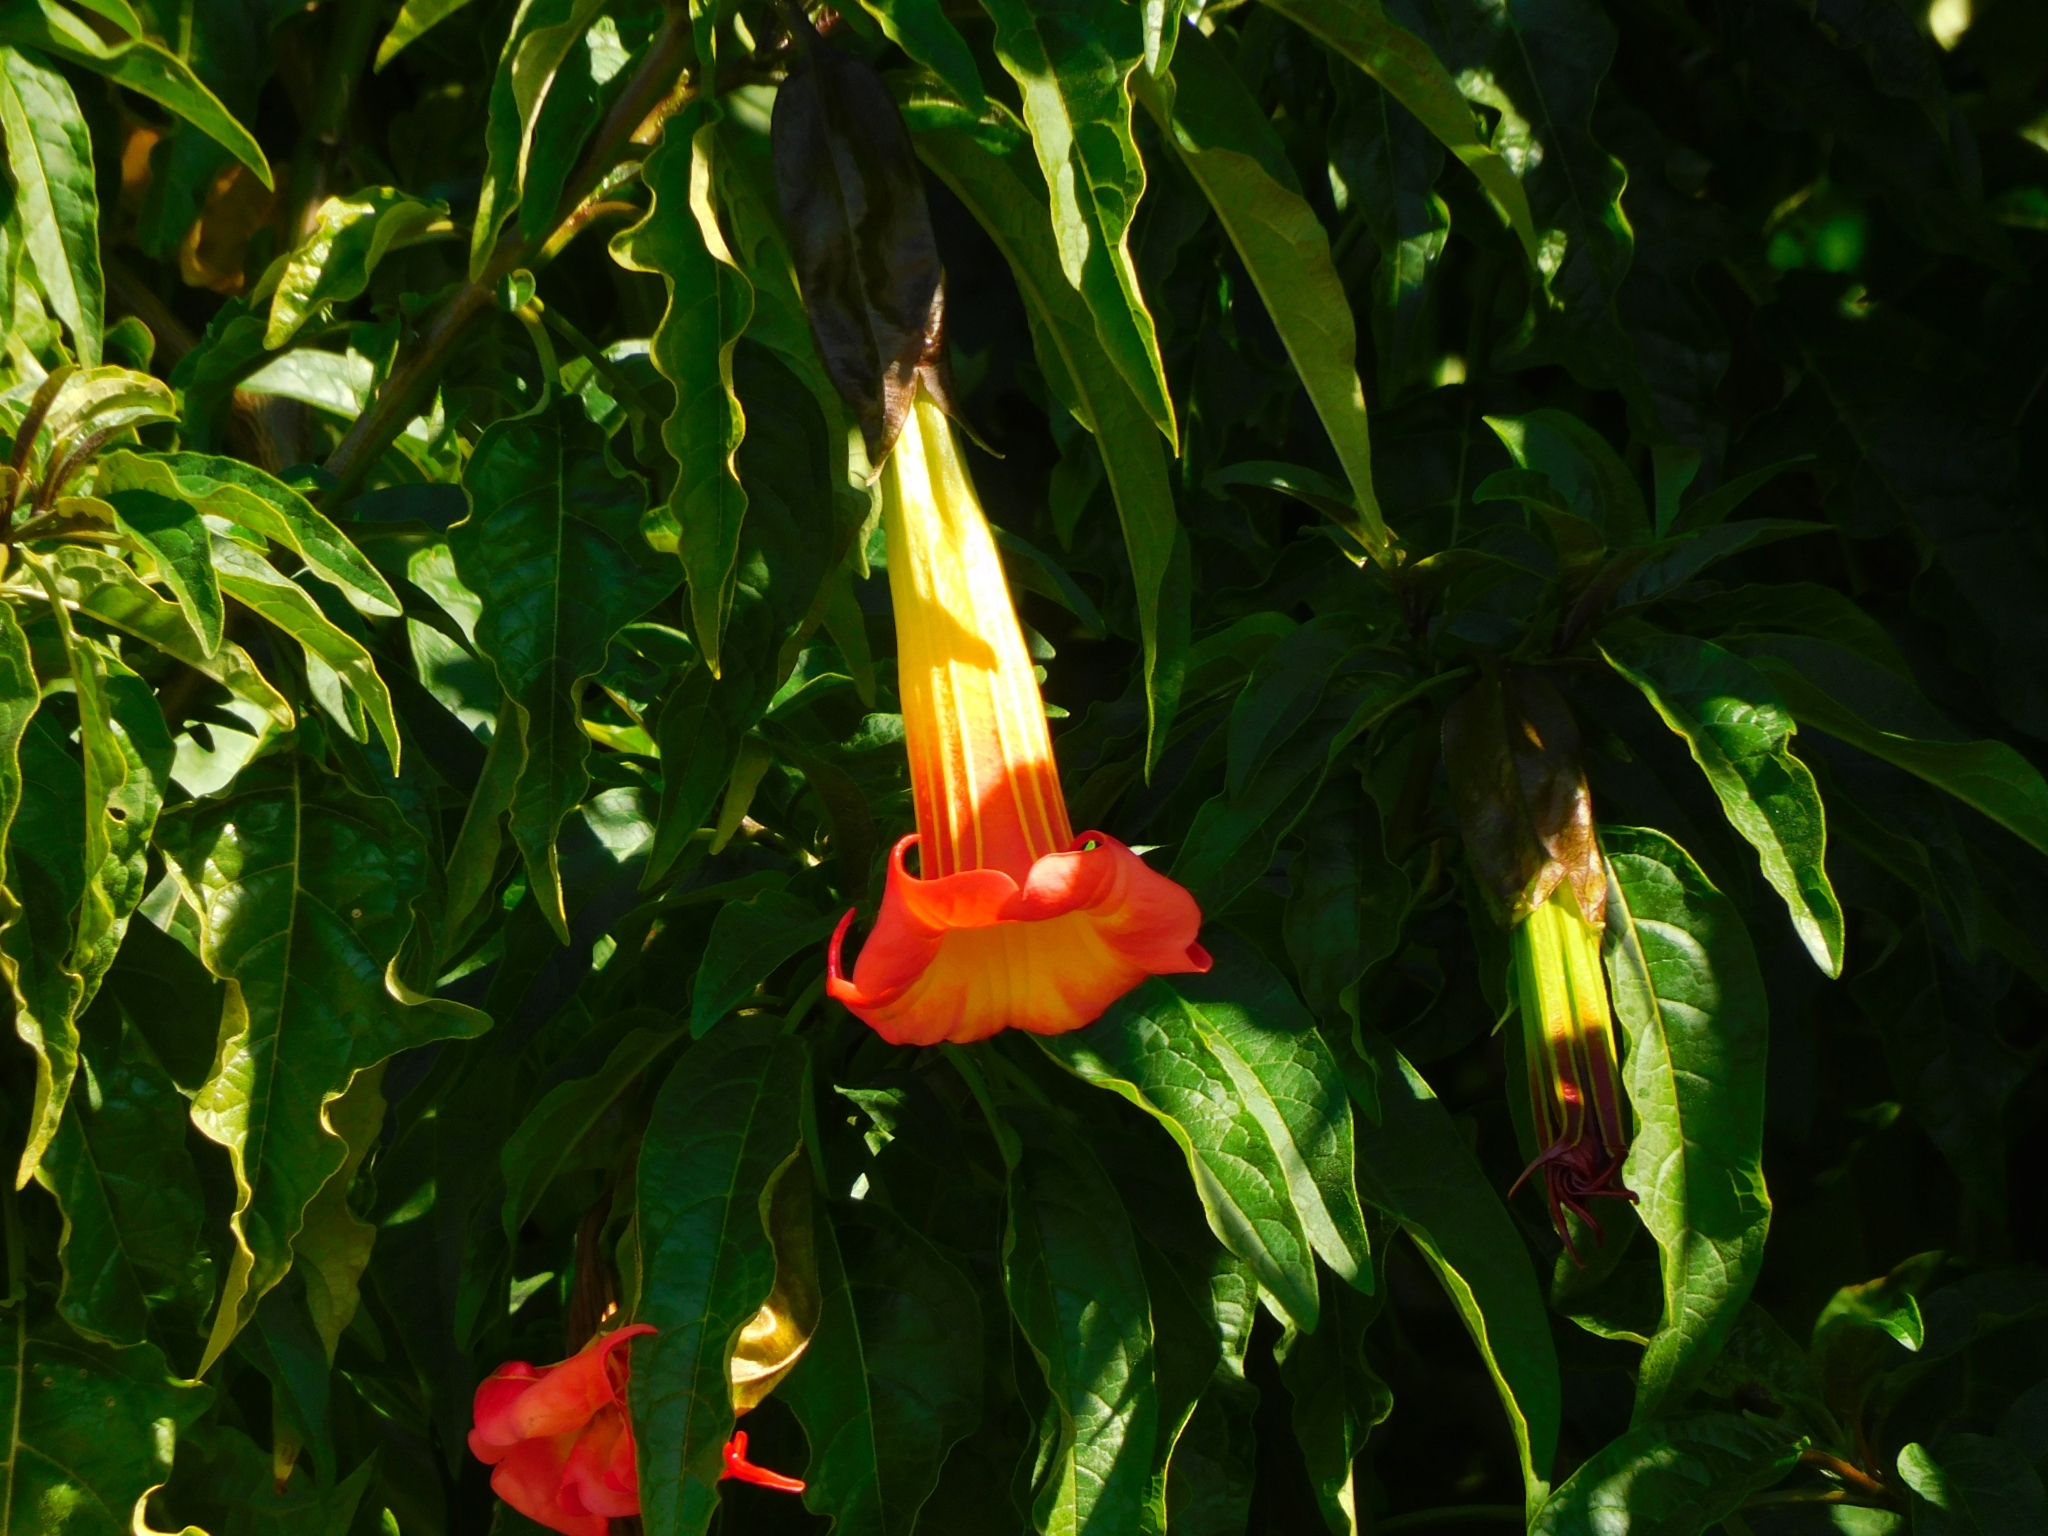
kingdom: Plantae
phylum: Tracheophyta
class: Magnoliopsida
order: Solanales
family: Solanaceae
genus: Brugmansia
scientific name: Brugmansia sanguinea
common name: Red floripontio
